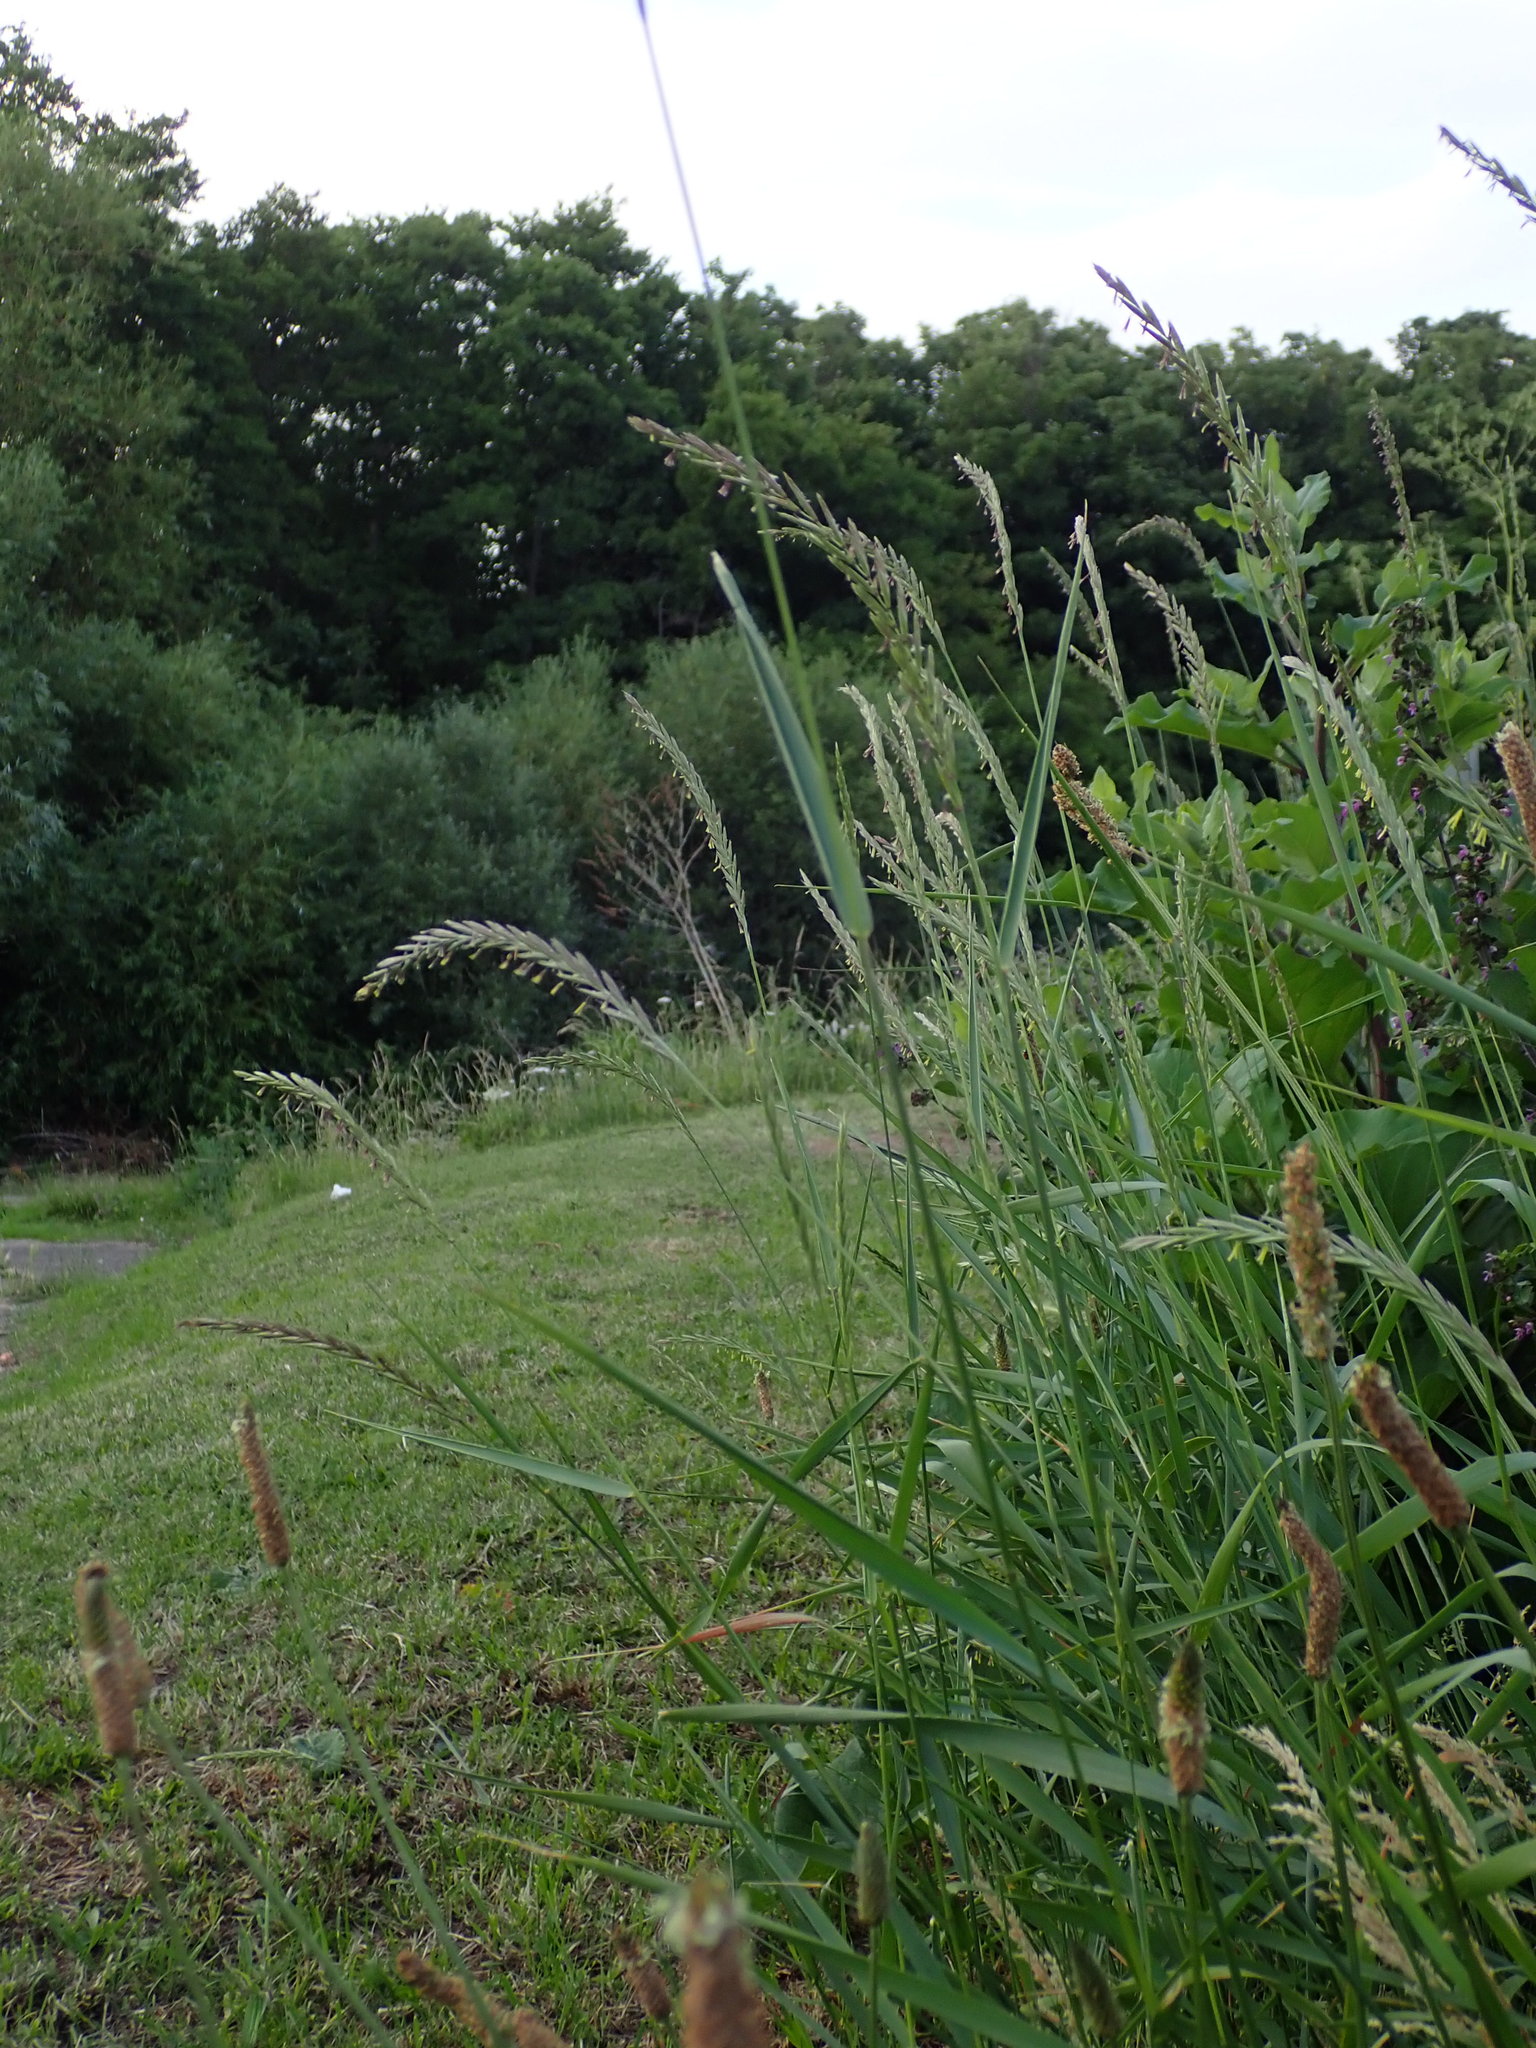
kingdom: Plantae
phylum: Tracheophyta
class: Liliopsida
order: Poales
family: Poaceae
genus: Elymus
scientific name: Elymus repens
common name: Quackgrass
